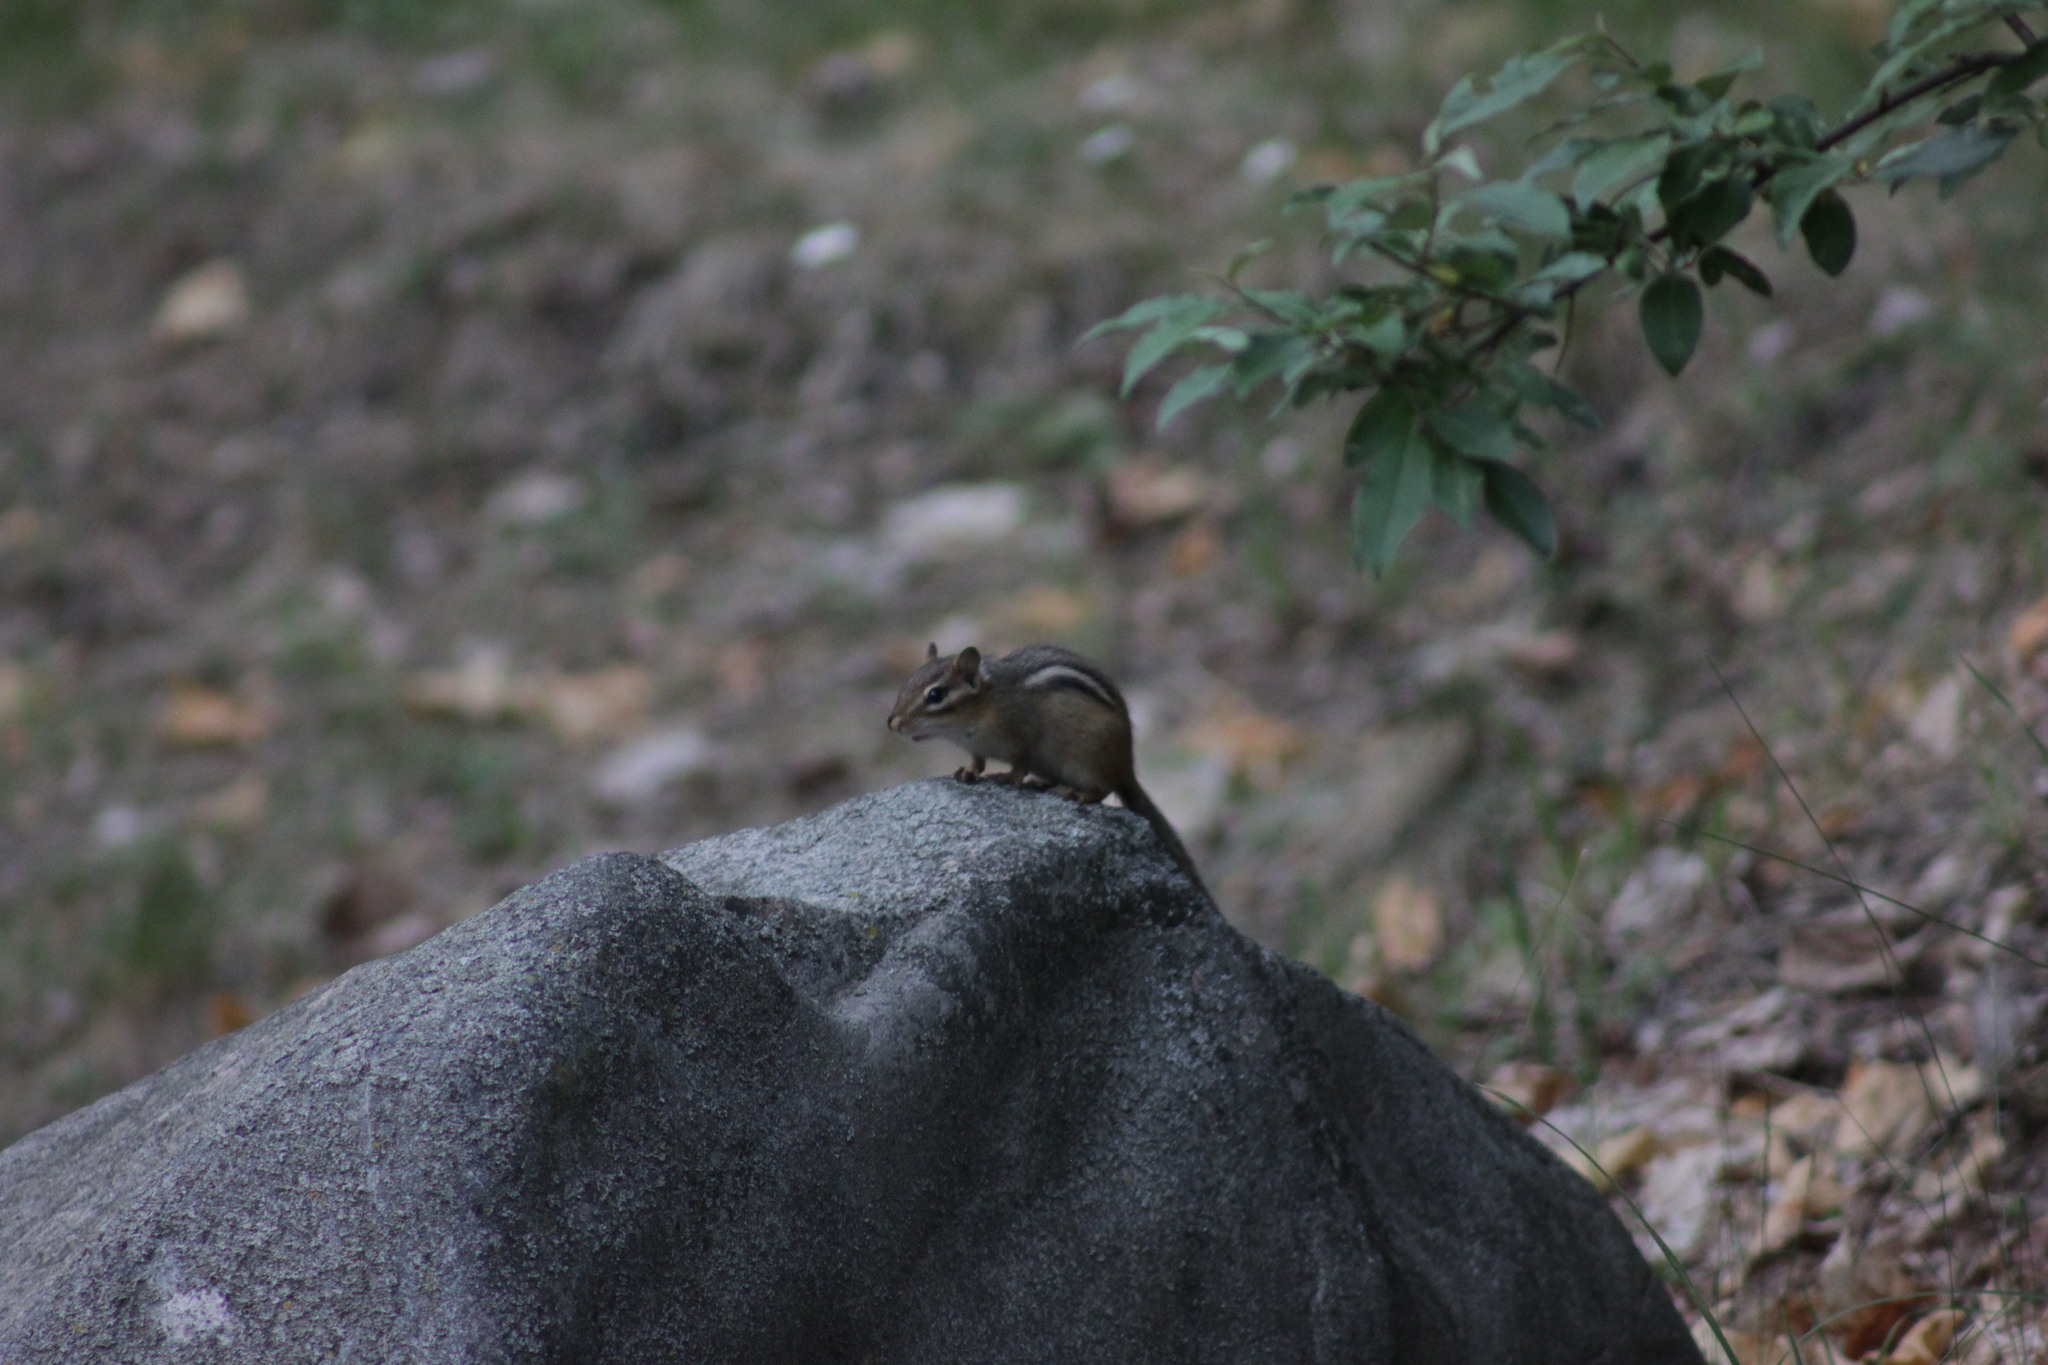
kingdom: Animalia
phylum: Chordata
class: Mammalia
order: Rodentia
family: Sciuridae
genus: Tamias
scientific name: Tamias striatus
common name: Eastern chipmunk
